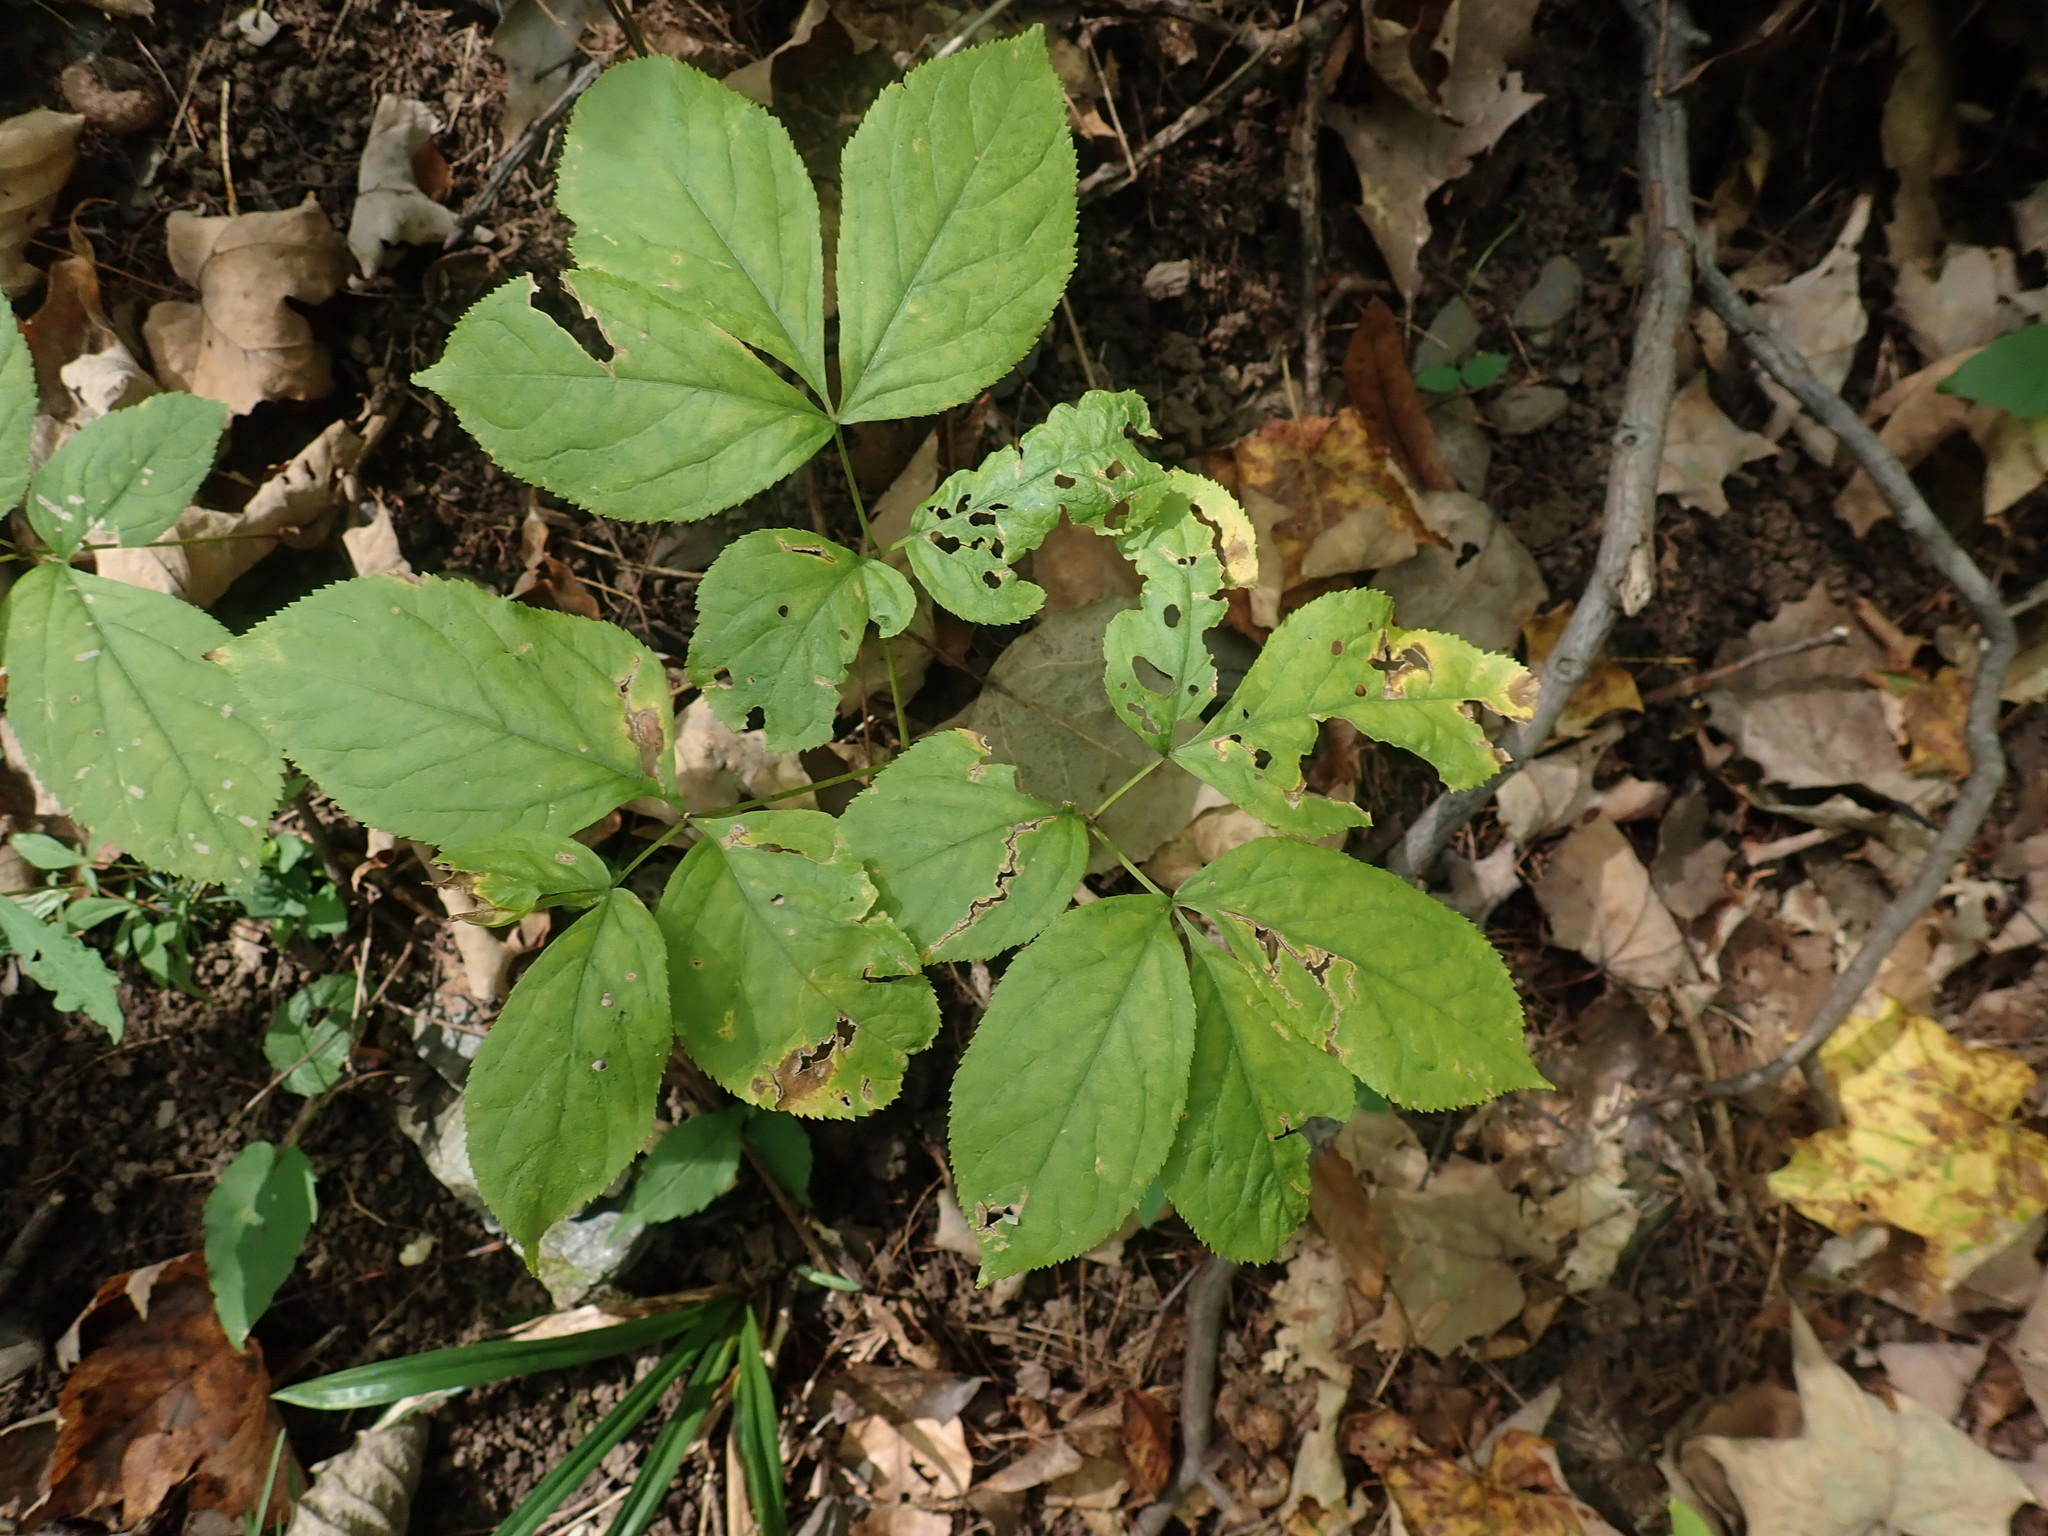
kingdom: Plantae
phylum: Tracheophyta
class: Magnoliopsida
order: Apiales
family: Araliaceae
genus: Aralia
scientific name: Aralia nudicaulis
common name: Wild sarsaparilla
